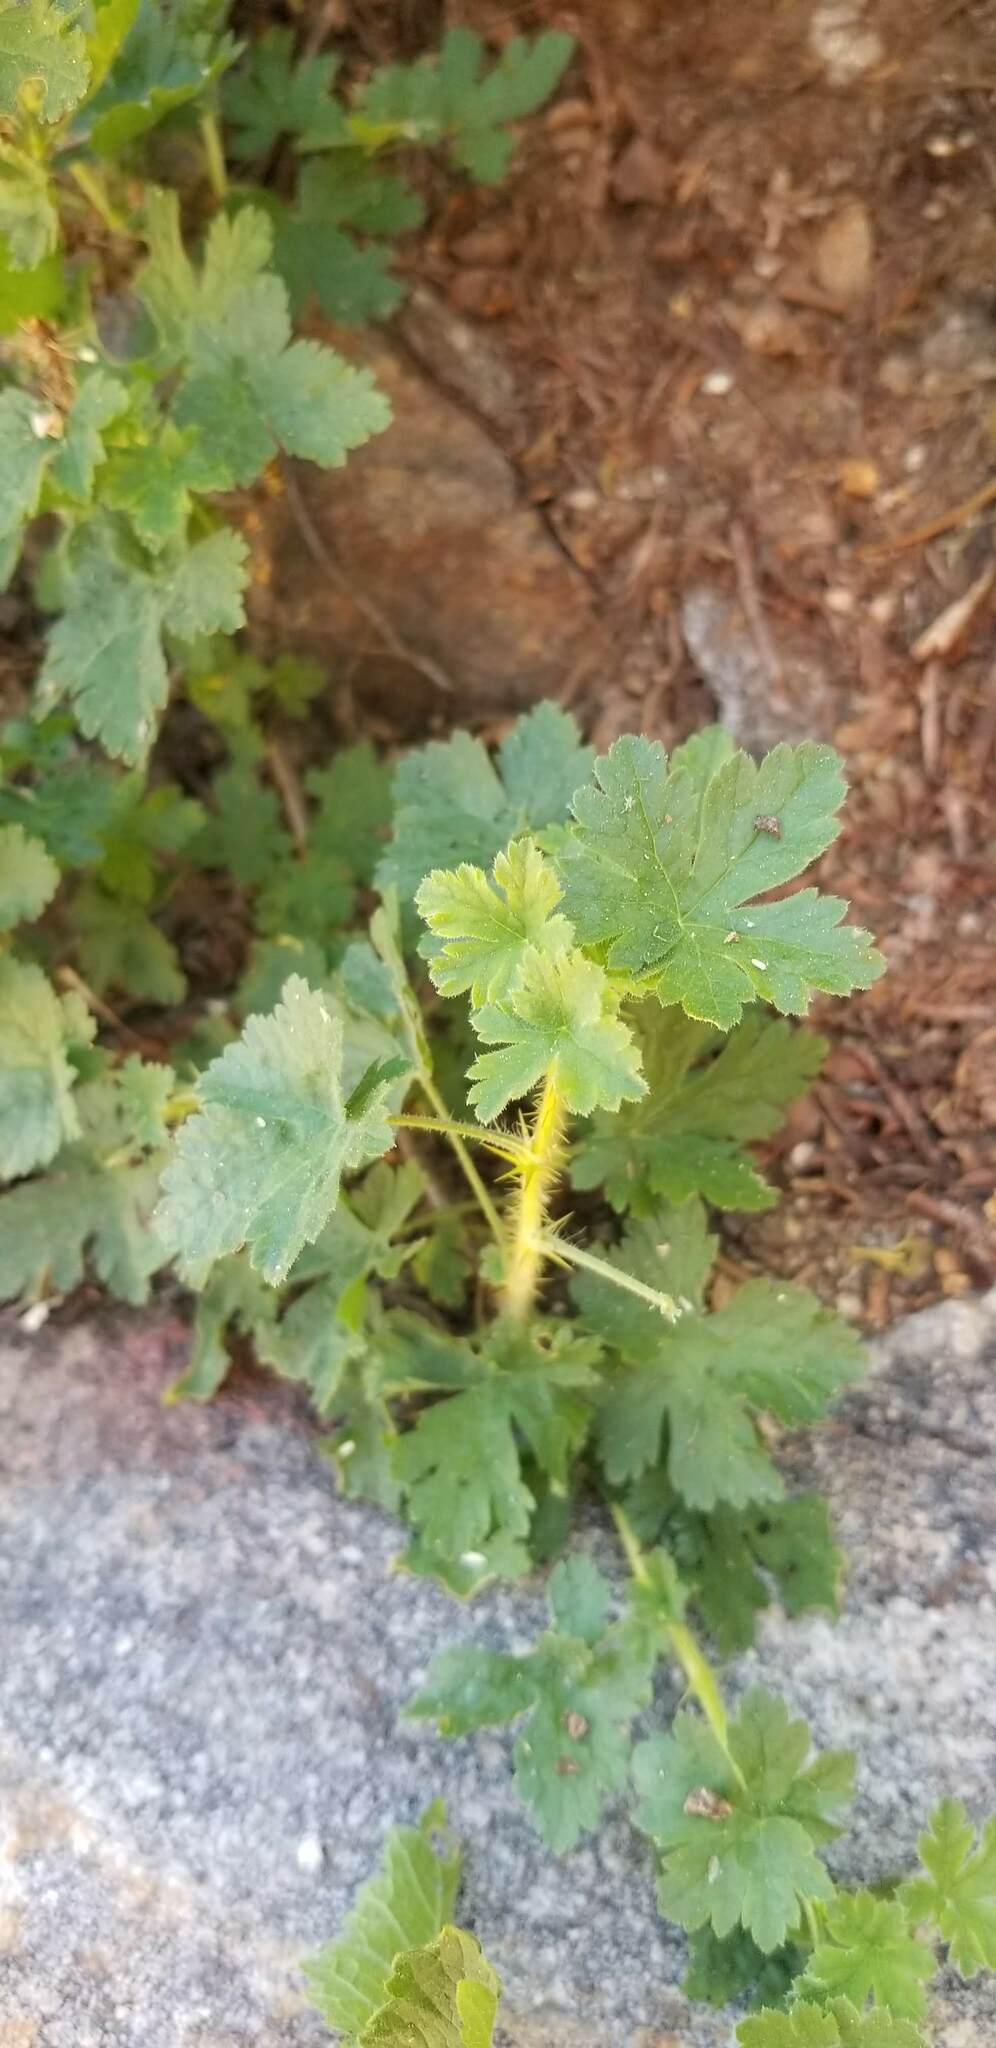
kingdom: Plantae
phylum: Tracheophyta
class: Magnoliopsida
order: Saxifragales
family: Grossulariaceae
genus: Ribes
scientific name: Ribes montigenum
